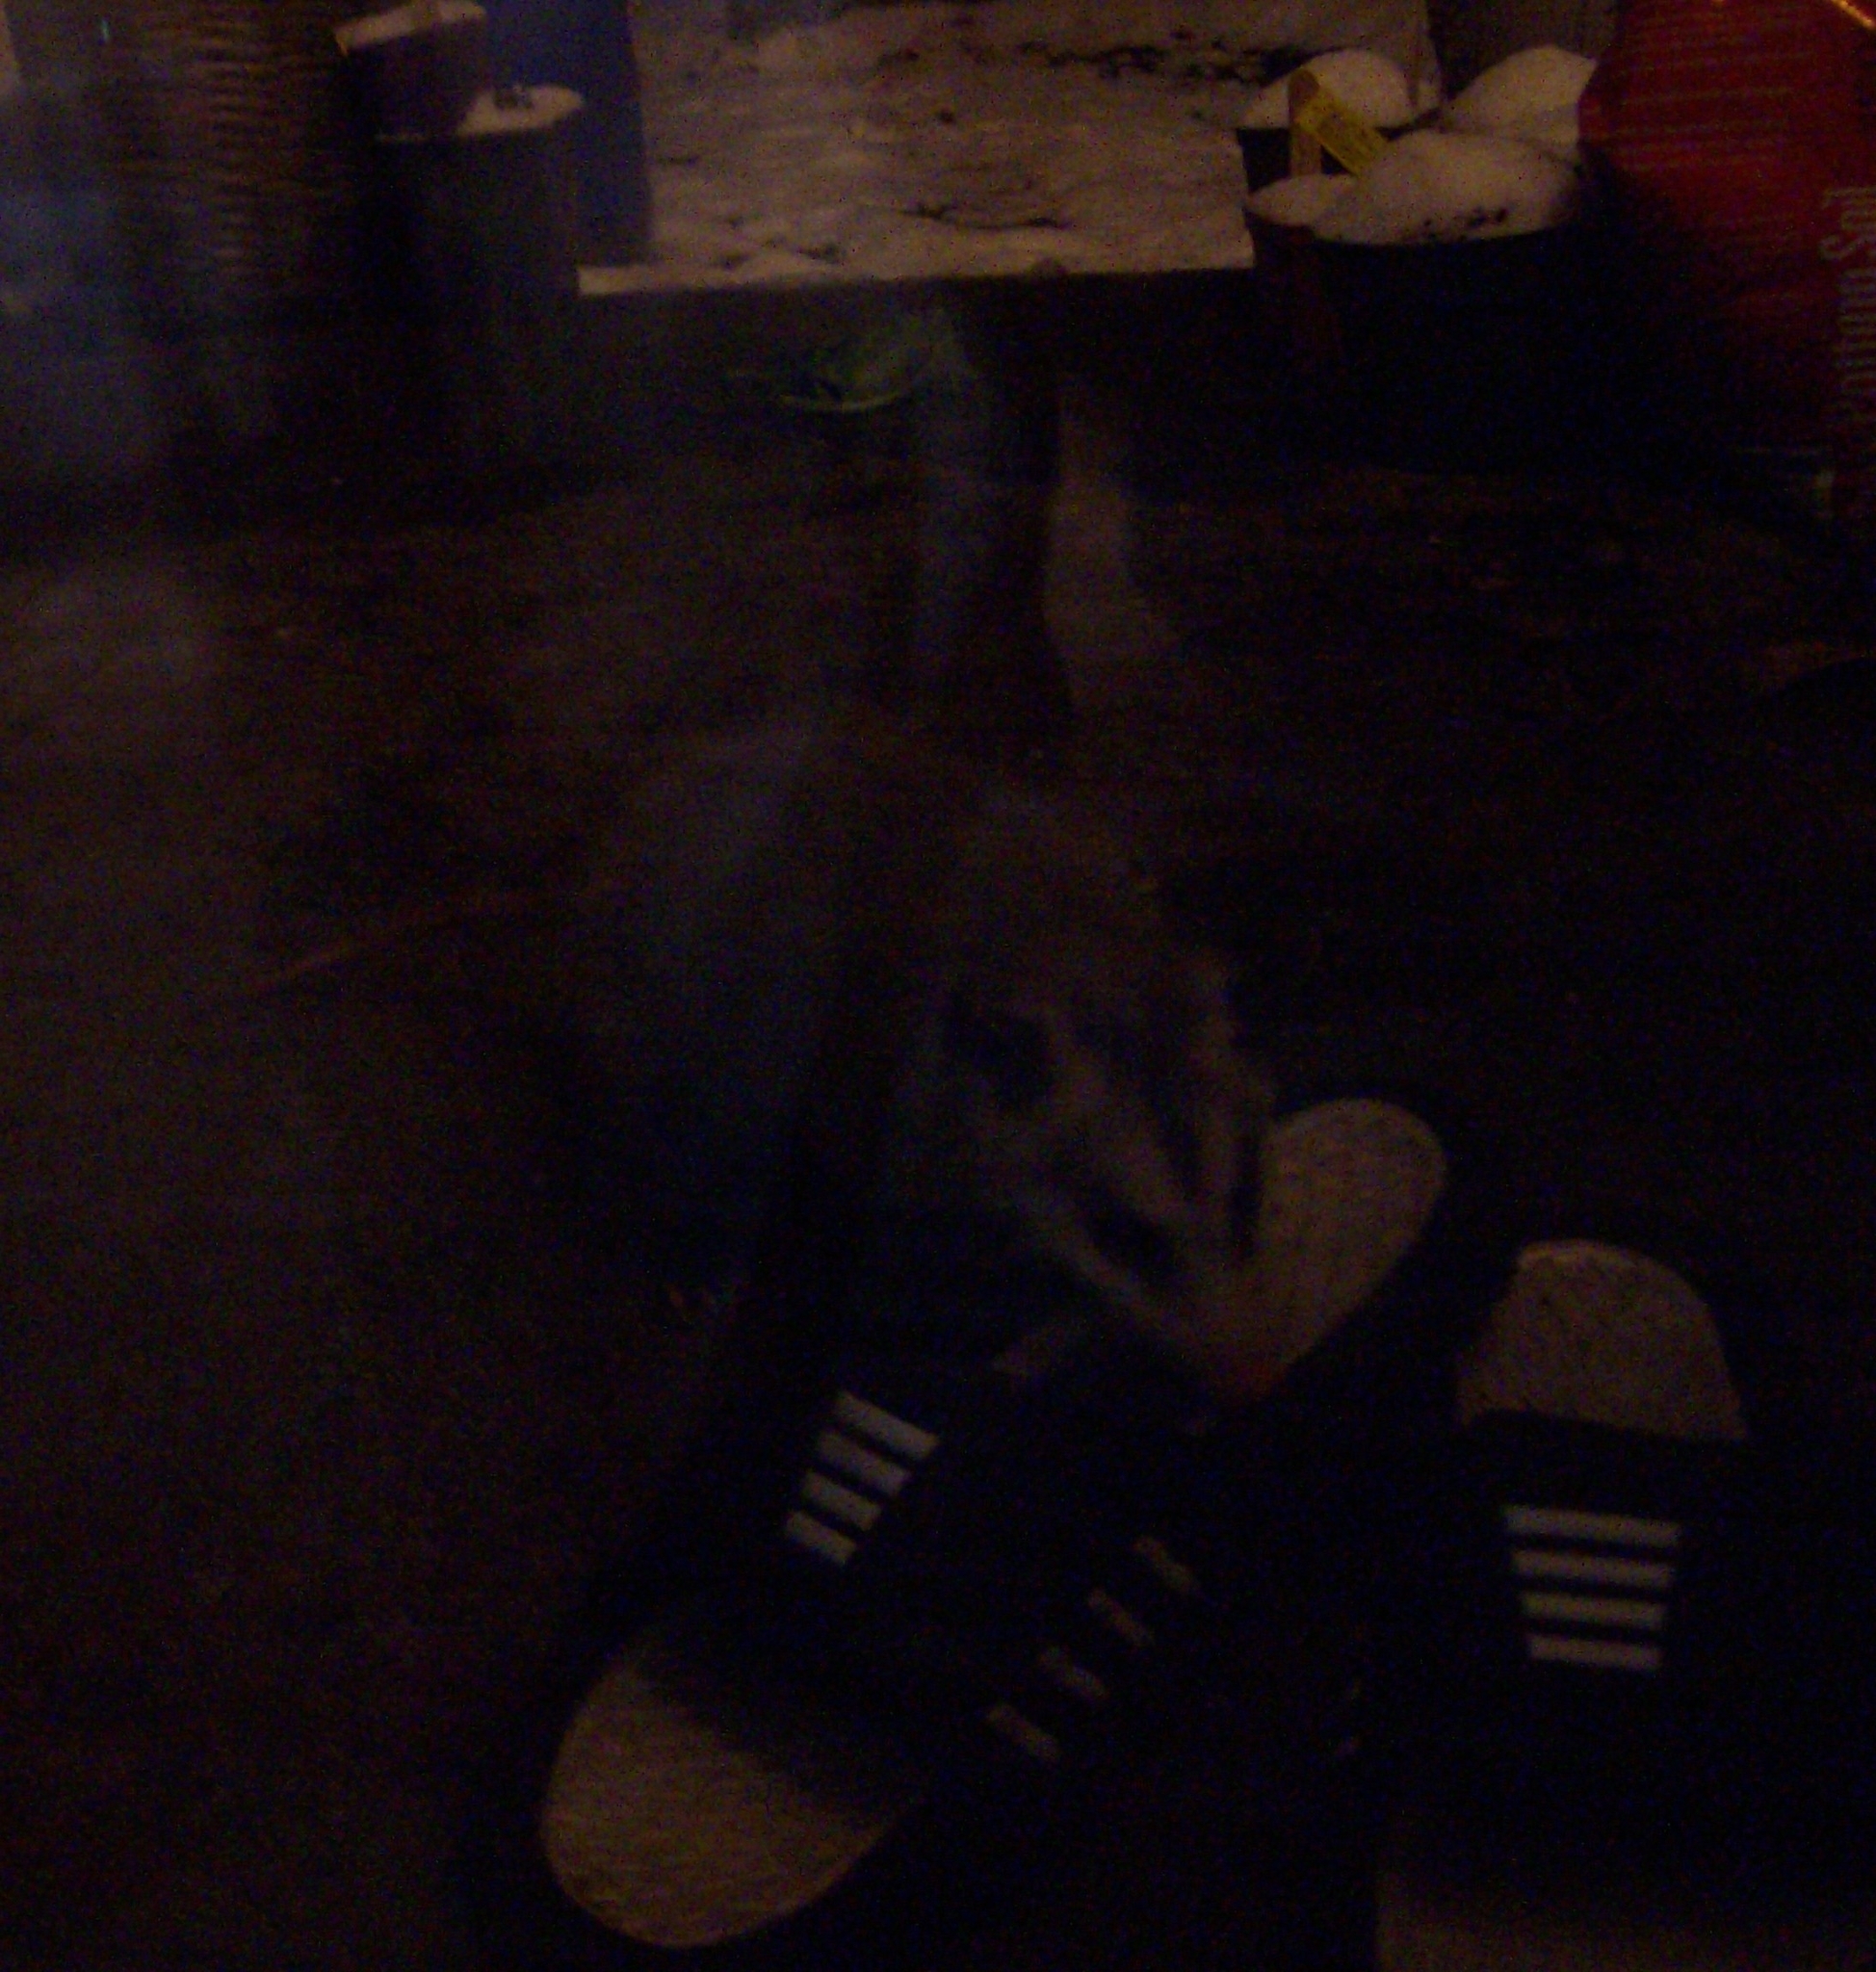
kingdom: Animalia
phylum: Chordata
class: Mammalia
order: Didelphimorphia
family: Didelphidae
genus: Didelphis
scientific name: Didelphis virginiana
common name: Virginia opossum
